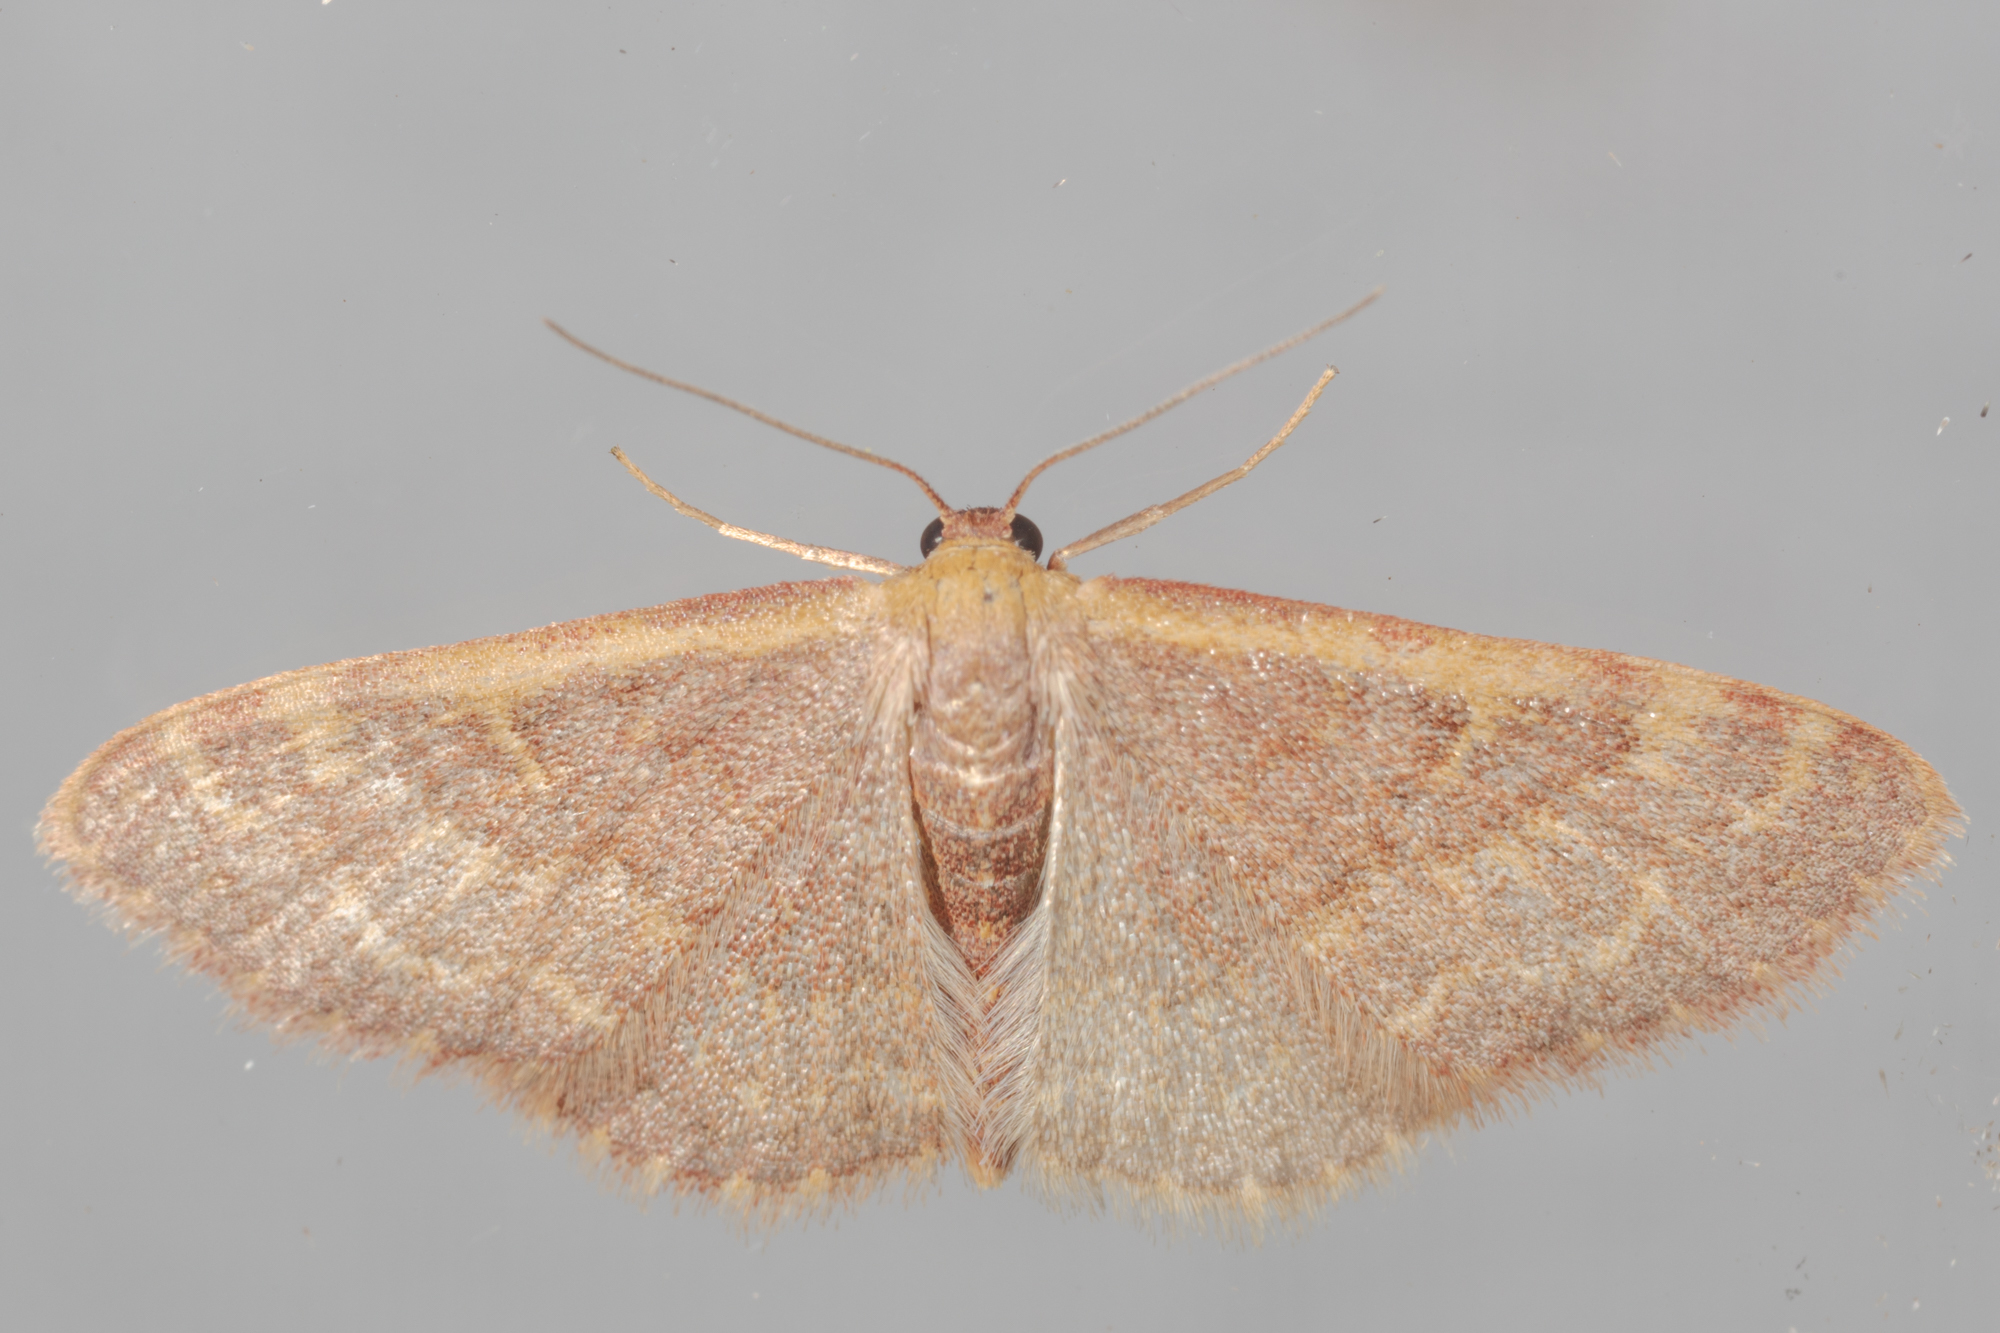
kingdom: Animalia
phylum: Arthropoda
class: Insecta
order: Lepidoptera
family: Geometridae
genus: Leptostales
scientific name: Leptostales pannaria
